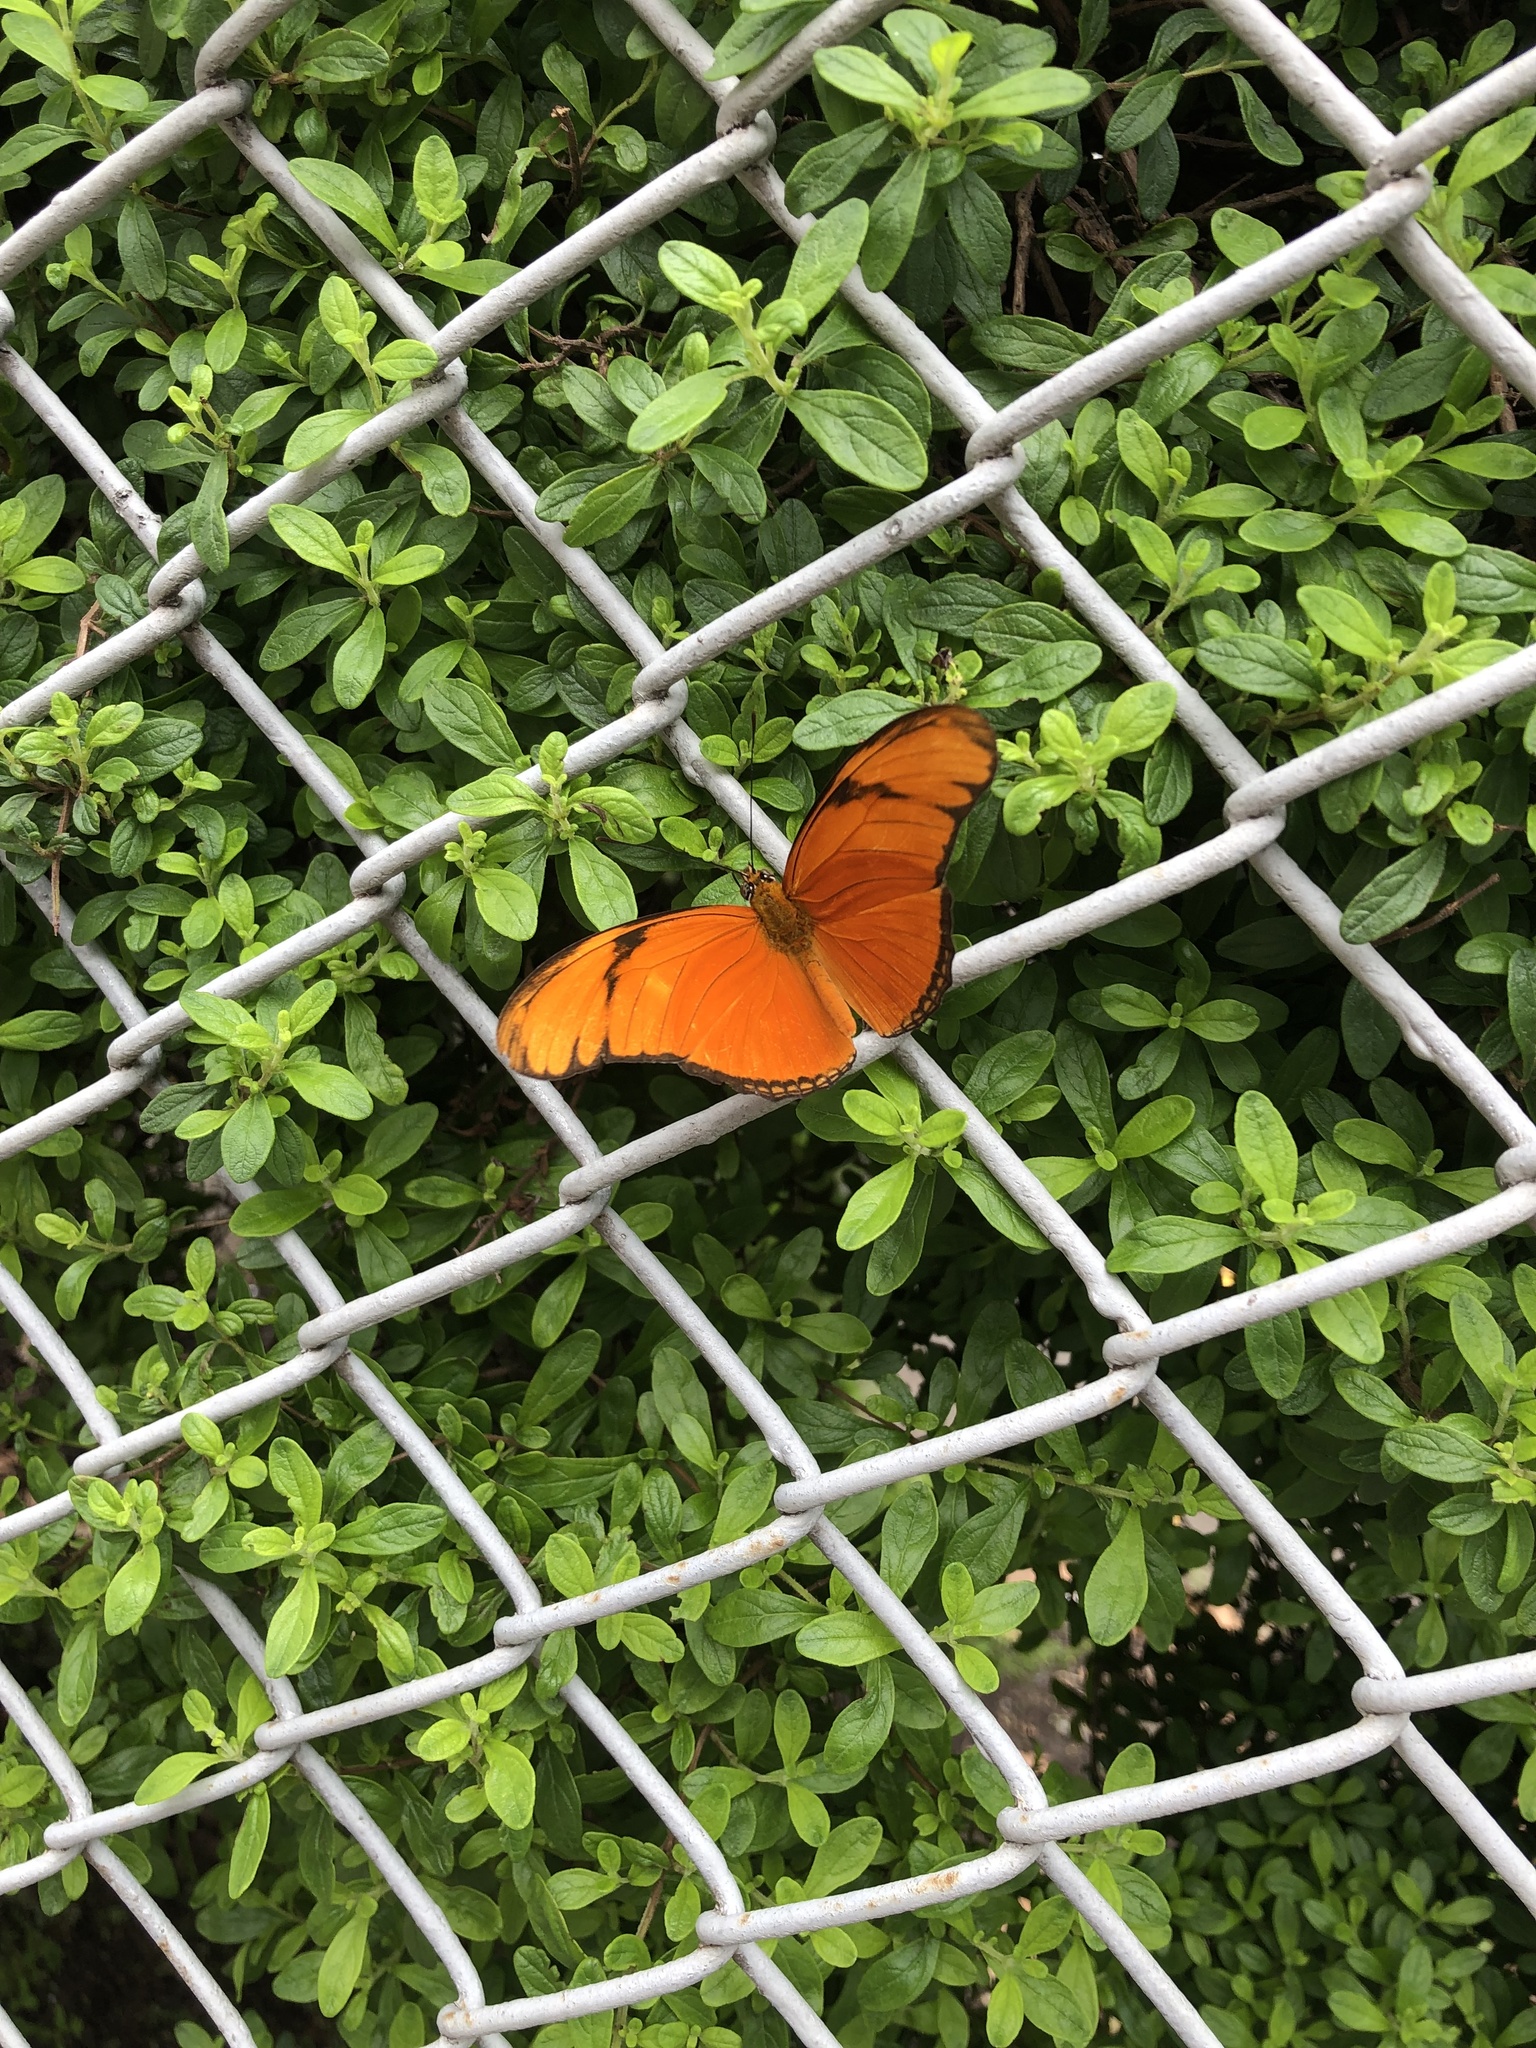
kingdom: Animalia
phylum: Arthropoda
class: Insecta
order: Lepidoptera
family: Nymphalidae
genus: Dryas
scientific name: Dryas iulia
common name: Flambeau
